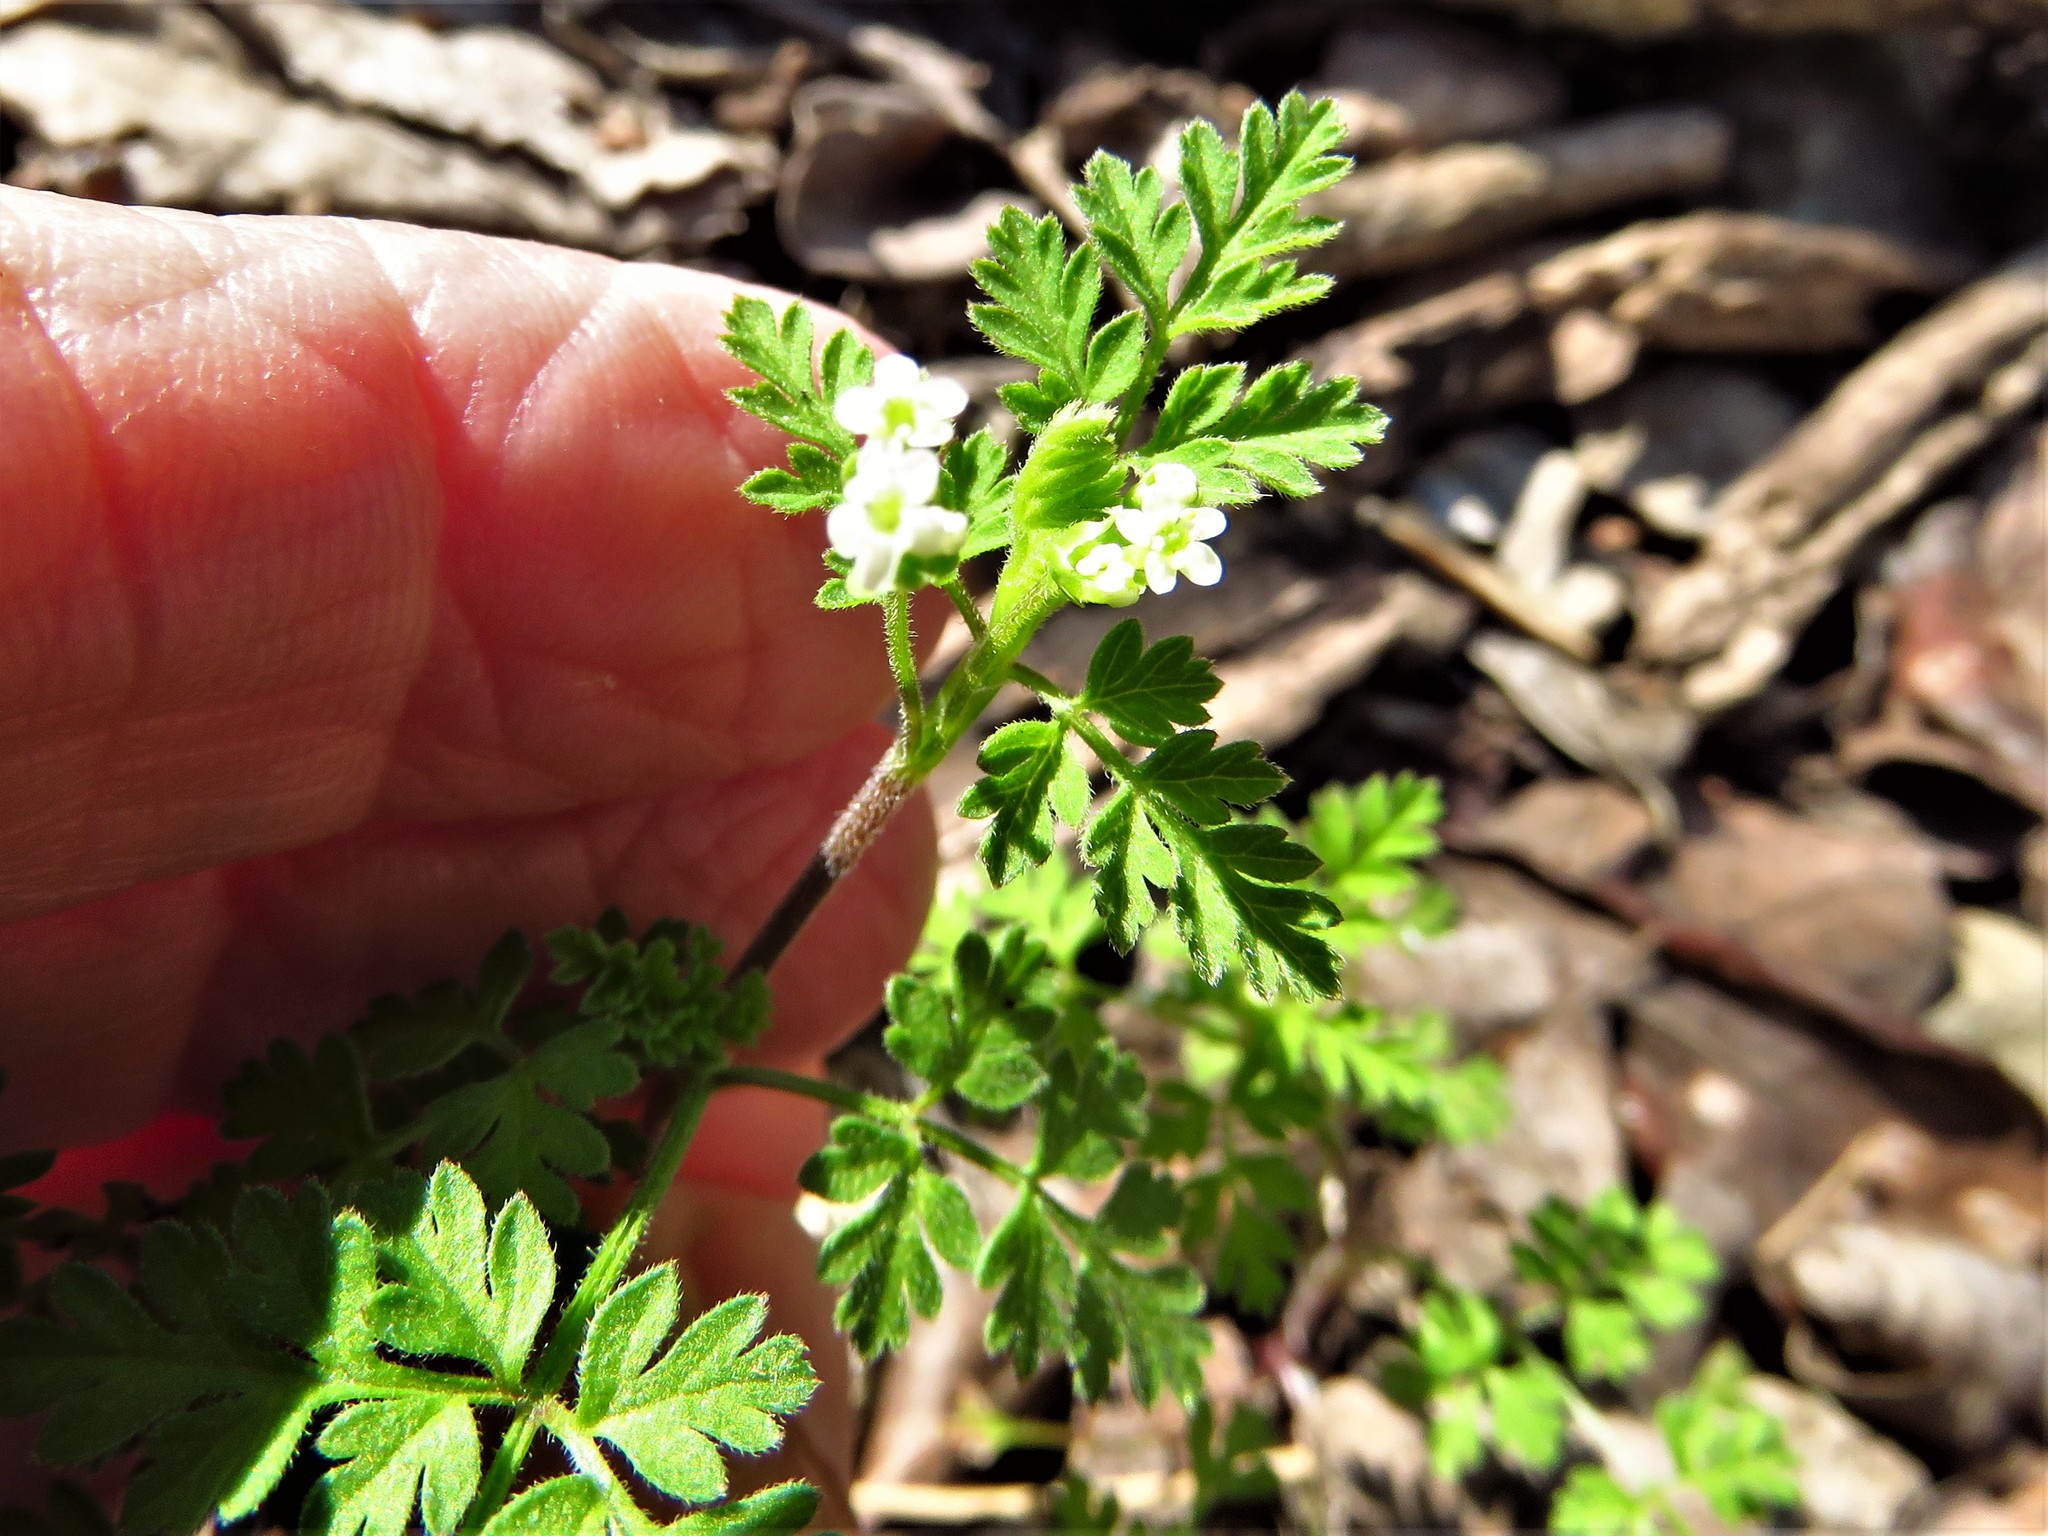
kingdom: Plantae
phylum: Tracheophyta
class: Magnoliopsida
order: Apiales
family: Apiaceae
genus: Chaerophyllum
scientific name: Chaerophyllum tainturieri
